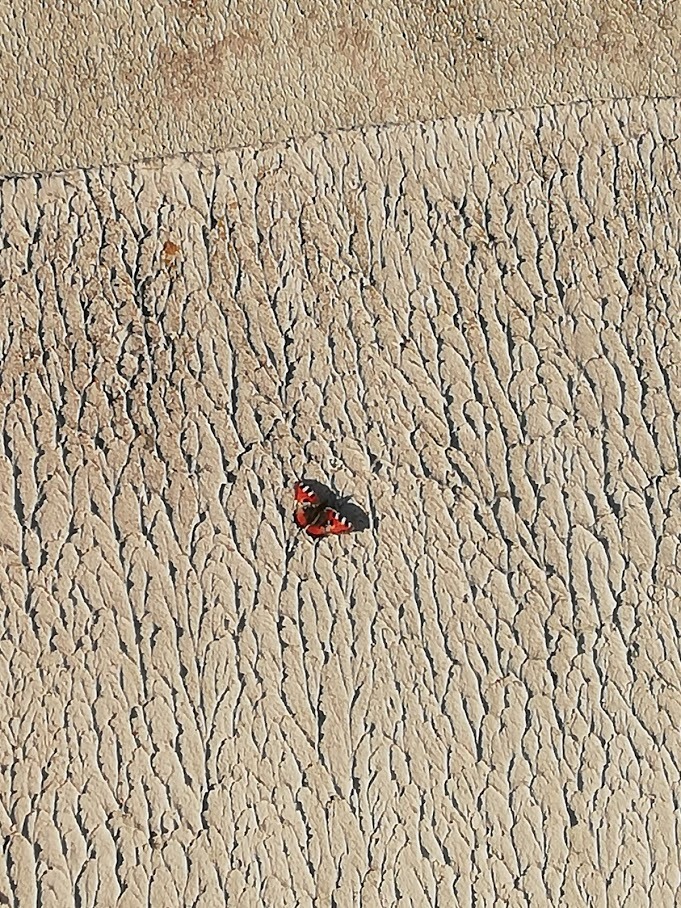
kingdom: Animalia
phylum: Arthropoda
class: Insecta
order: Lepidoptera
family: Nymphalidae
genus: Aglais
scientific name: Aglais urticae
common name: Small tortoiseshell
